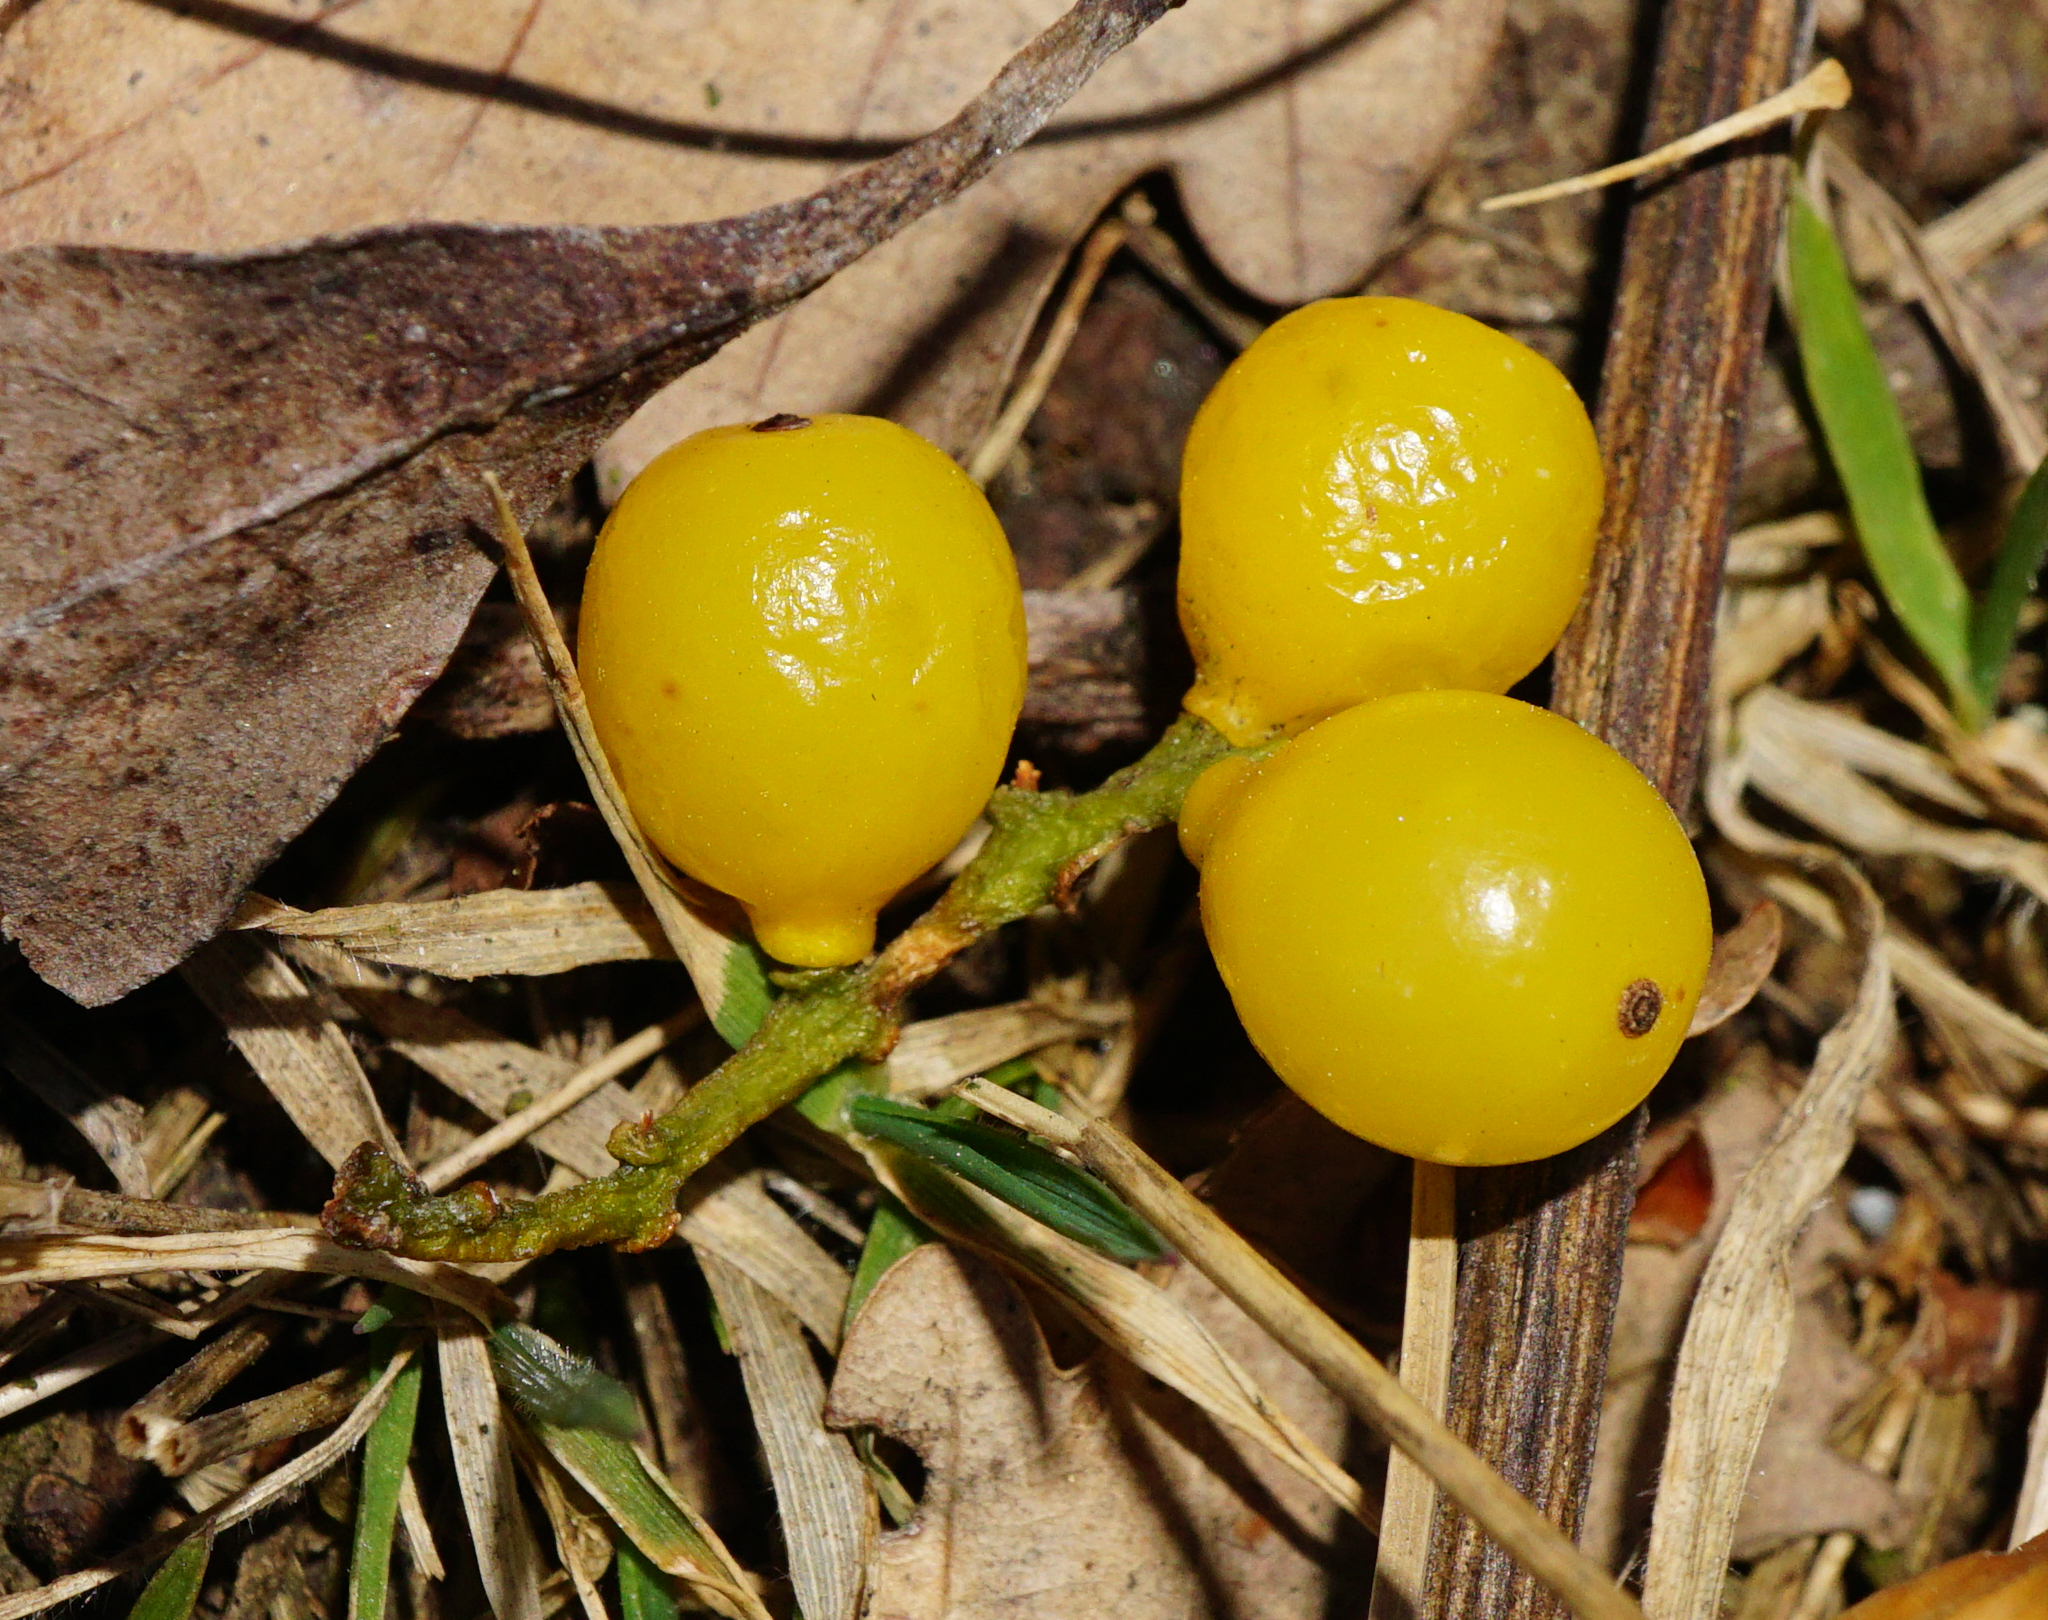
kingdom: Plantae
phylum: Tracheophyta
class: Magnoliopsida
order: Santalales
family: Loranthaceae
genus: Loranthus
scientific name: Loranthus europaeus
